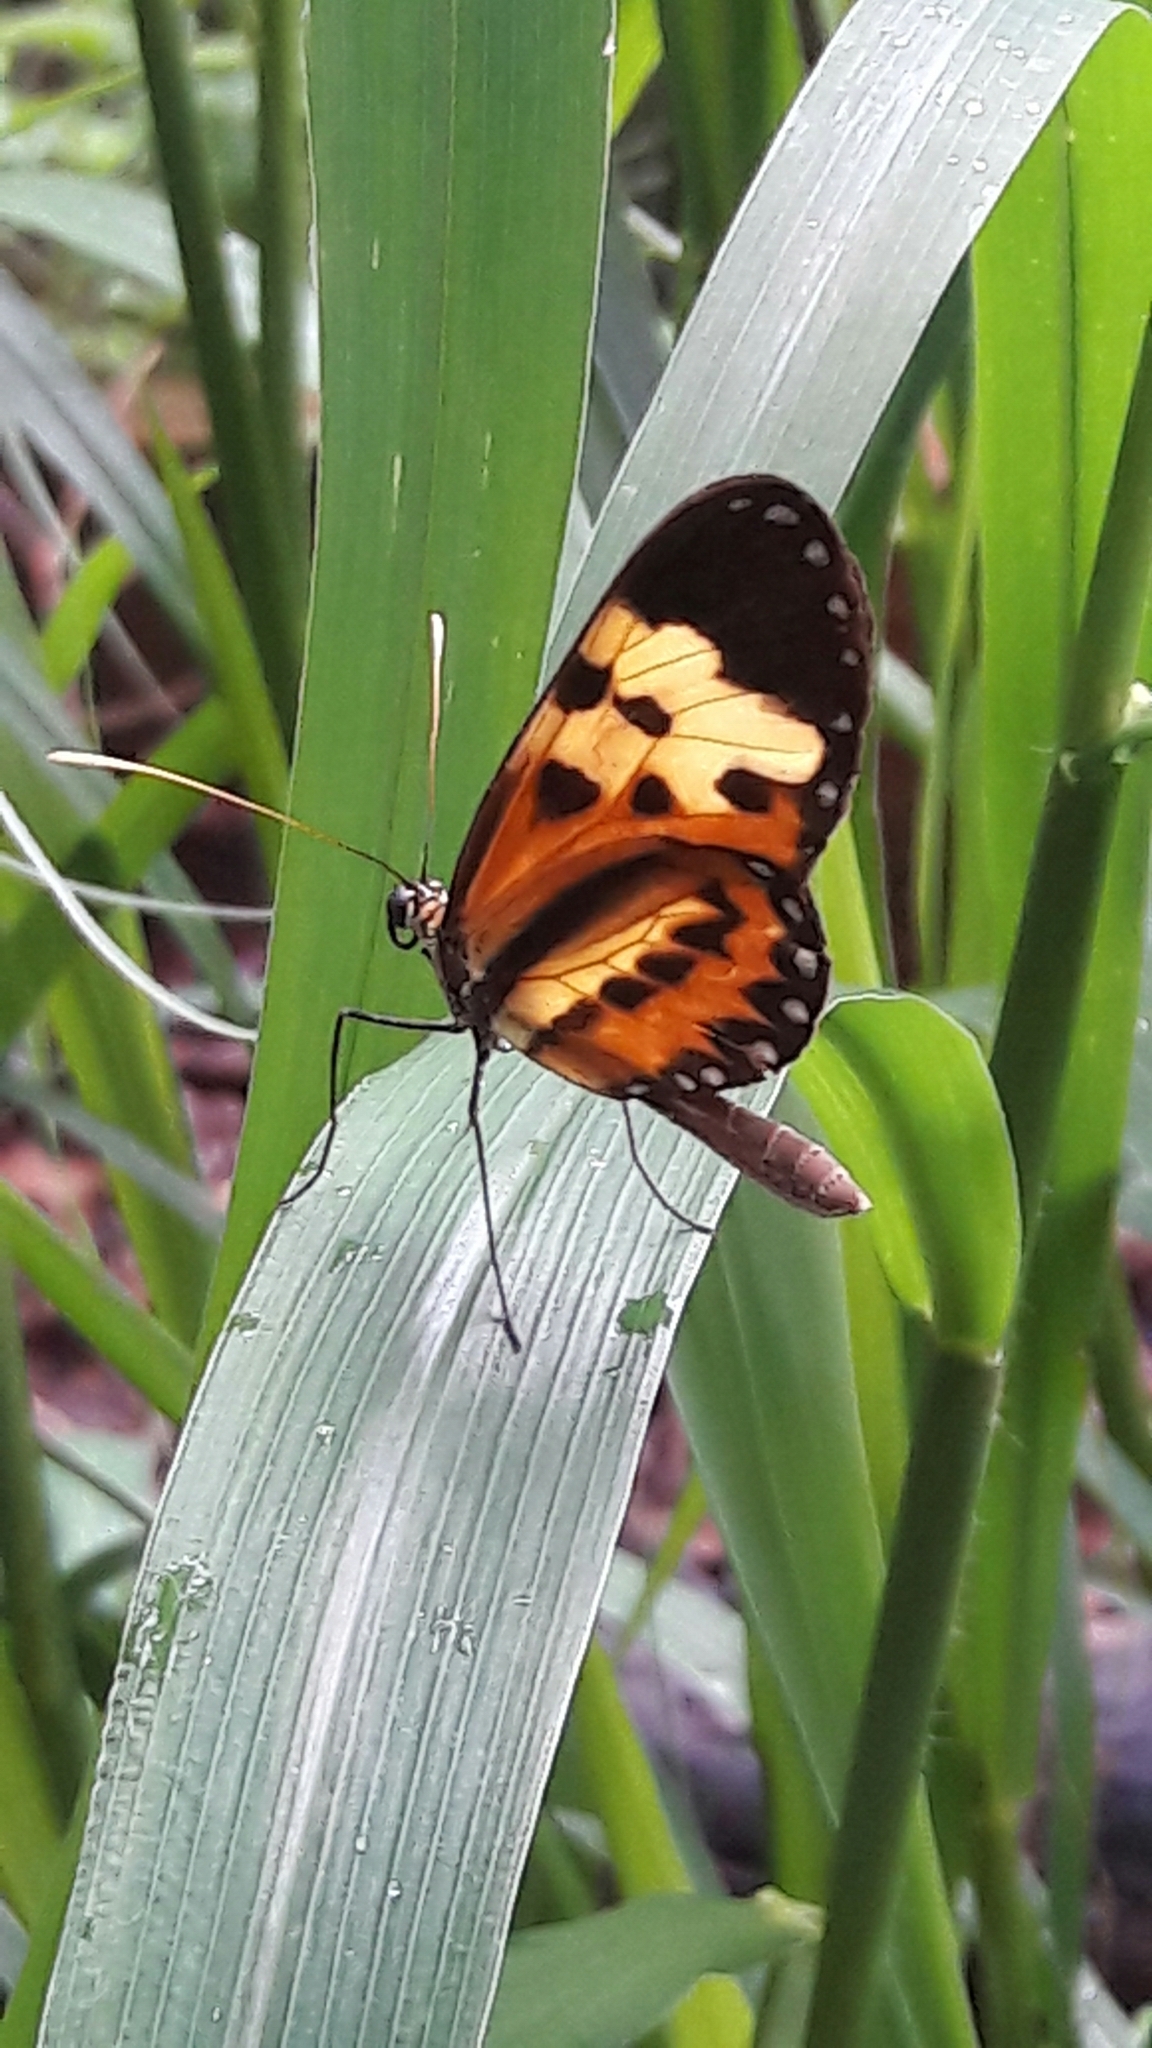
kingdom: Animalia
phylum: Arthropoda
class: Insecta
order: Lepidoptera
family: Nymphalidae
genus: Mechanitis
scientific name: Mechanitis polymnia
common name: Disturbed tigerwing
